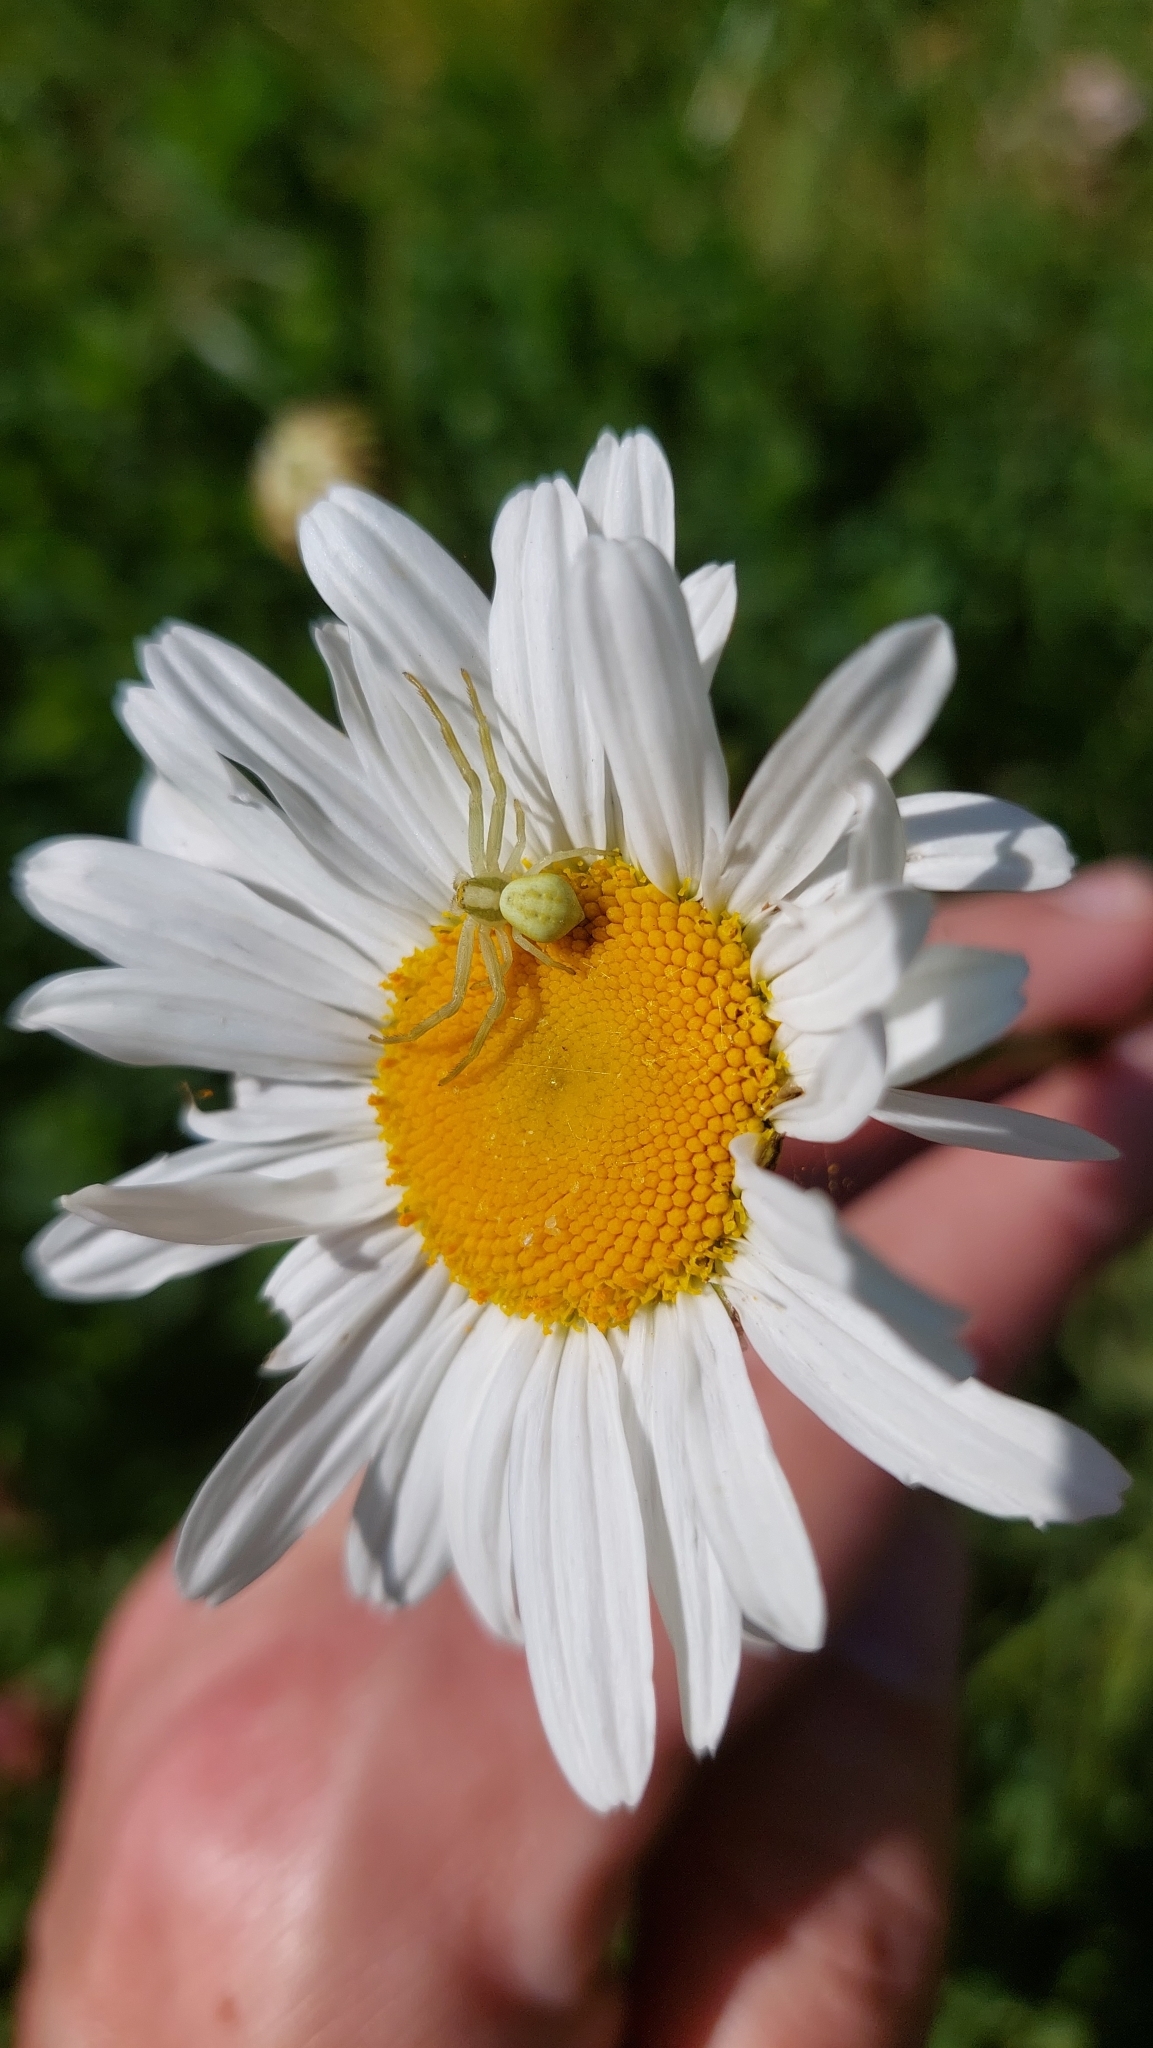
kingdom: Animalia
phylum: Arthropoda
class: Arachnida
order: Araneae
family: Thomisidae
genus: Misumena
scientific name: Misumena vatia
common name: Goldenrod crab spider
